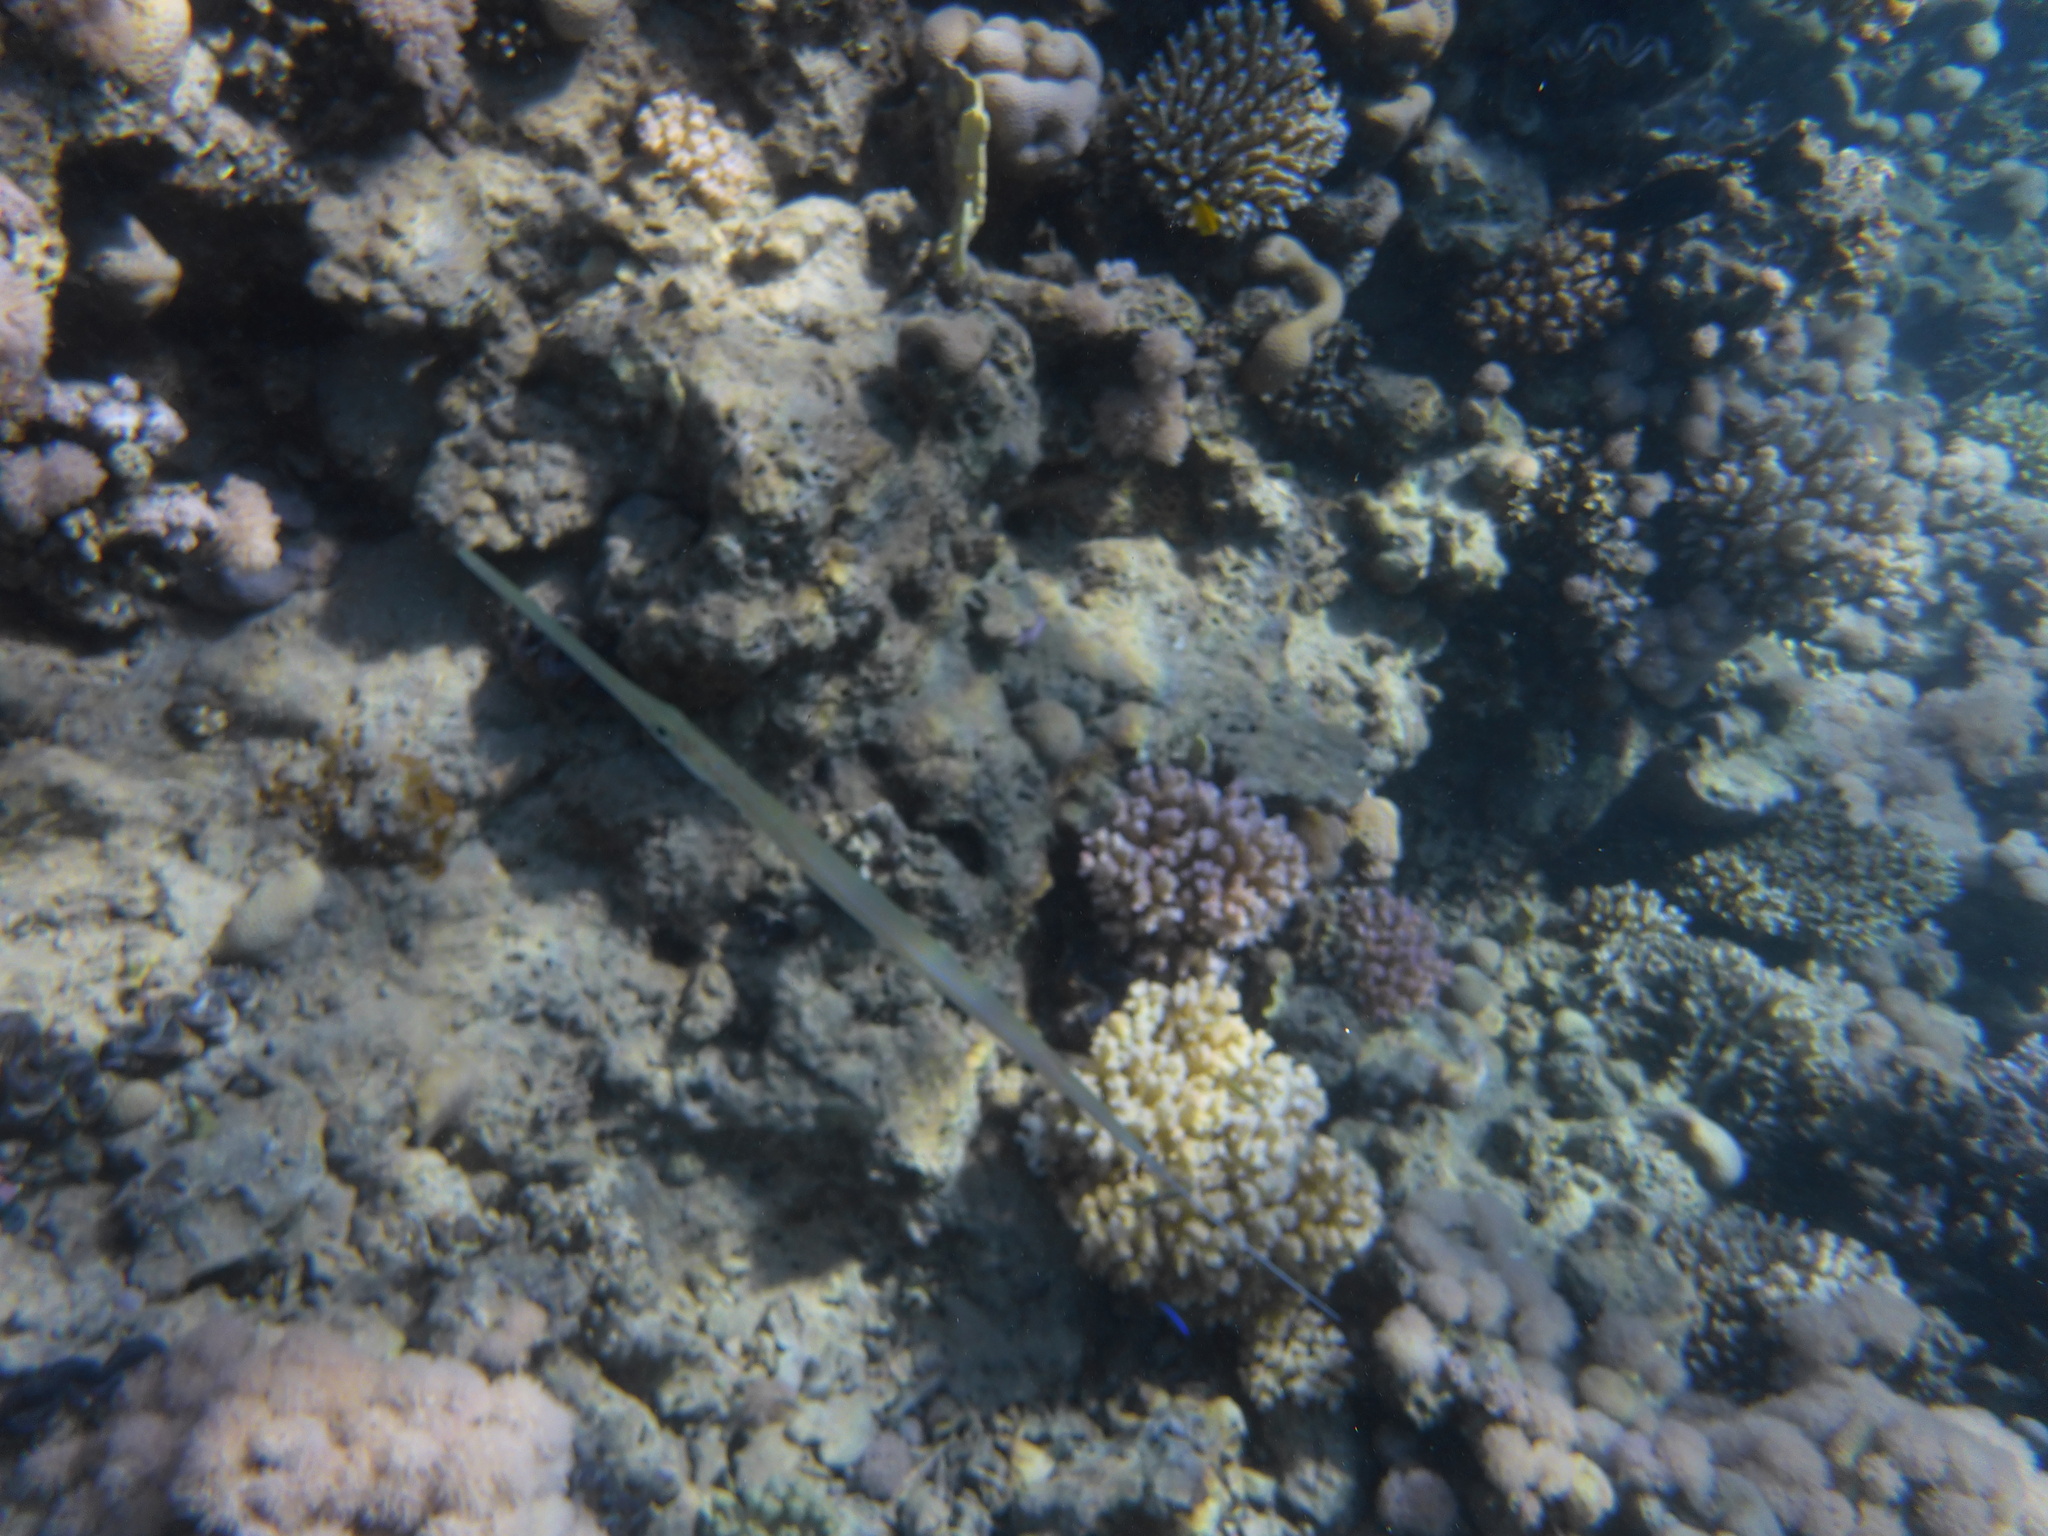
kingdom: Animalia
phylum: Chordata
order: Syngnathiformes
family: Fistulariidae
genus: Fistularia
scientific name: Fistularia commersonii
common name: Bluespotted cornetfish
